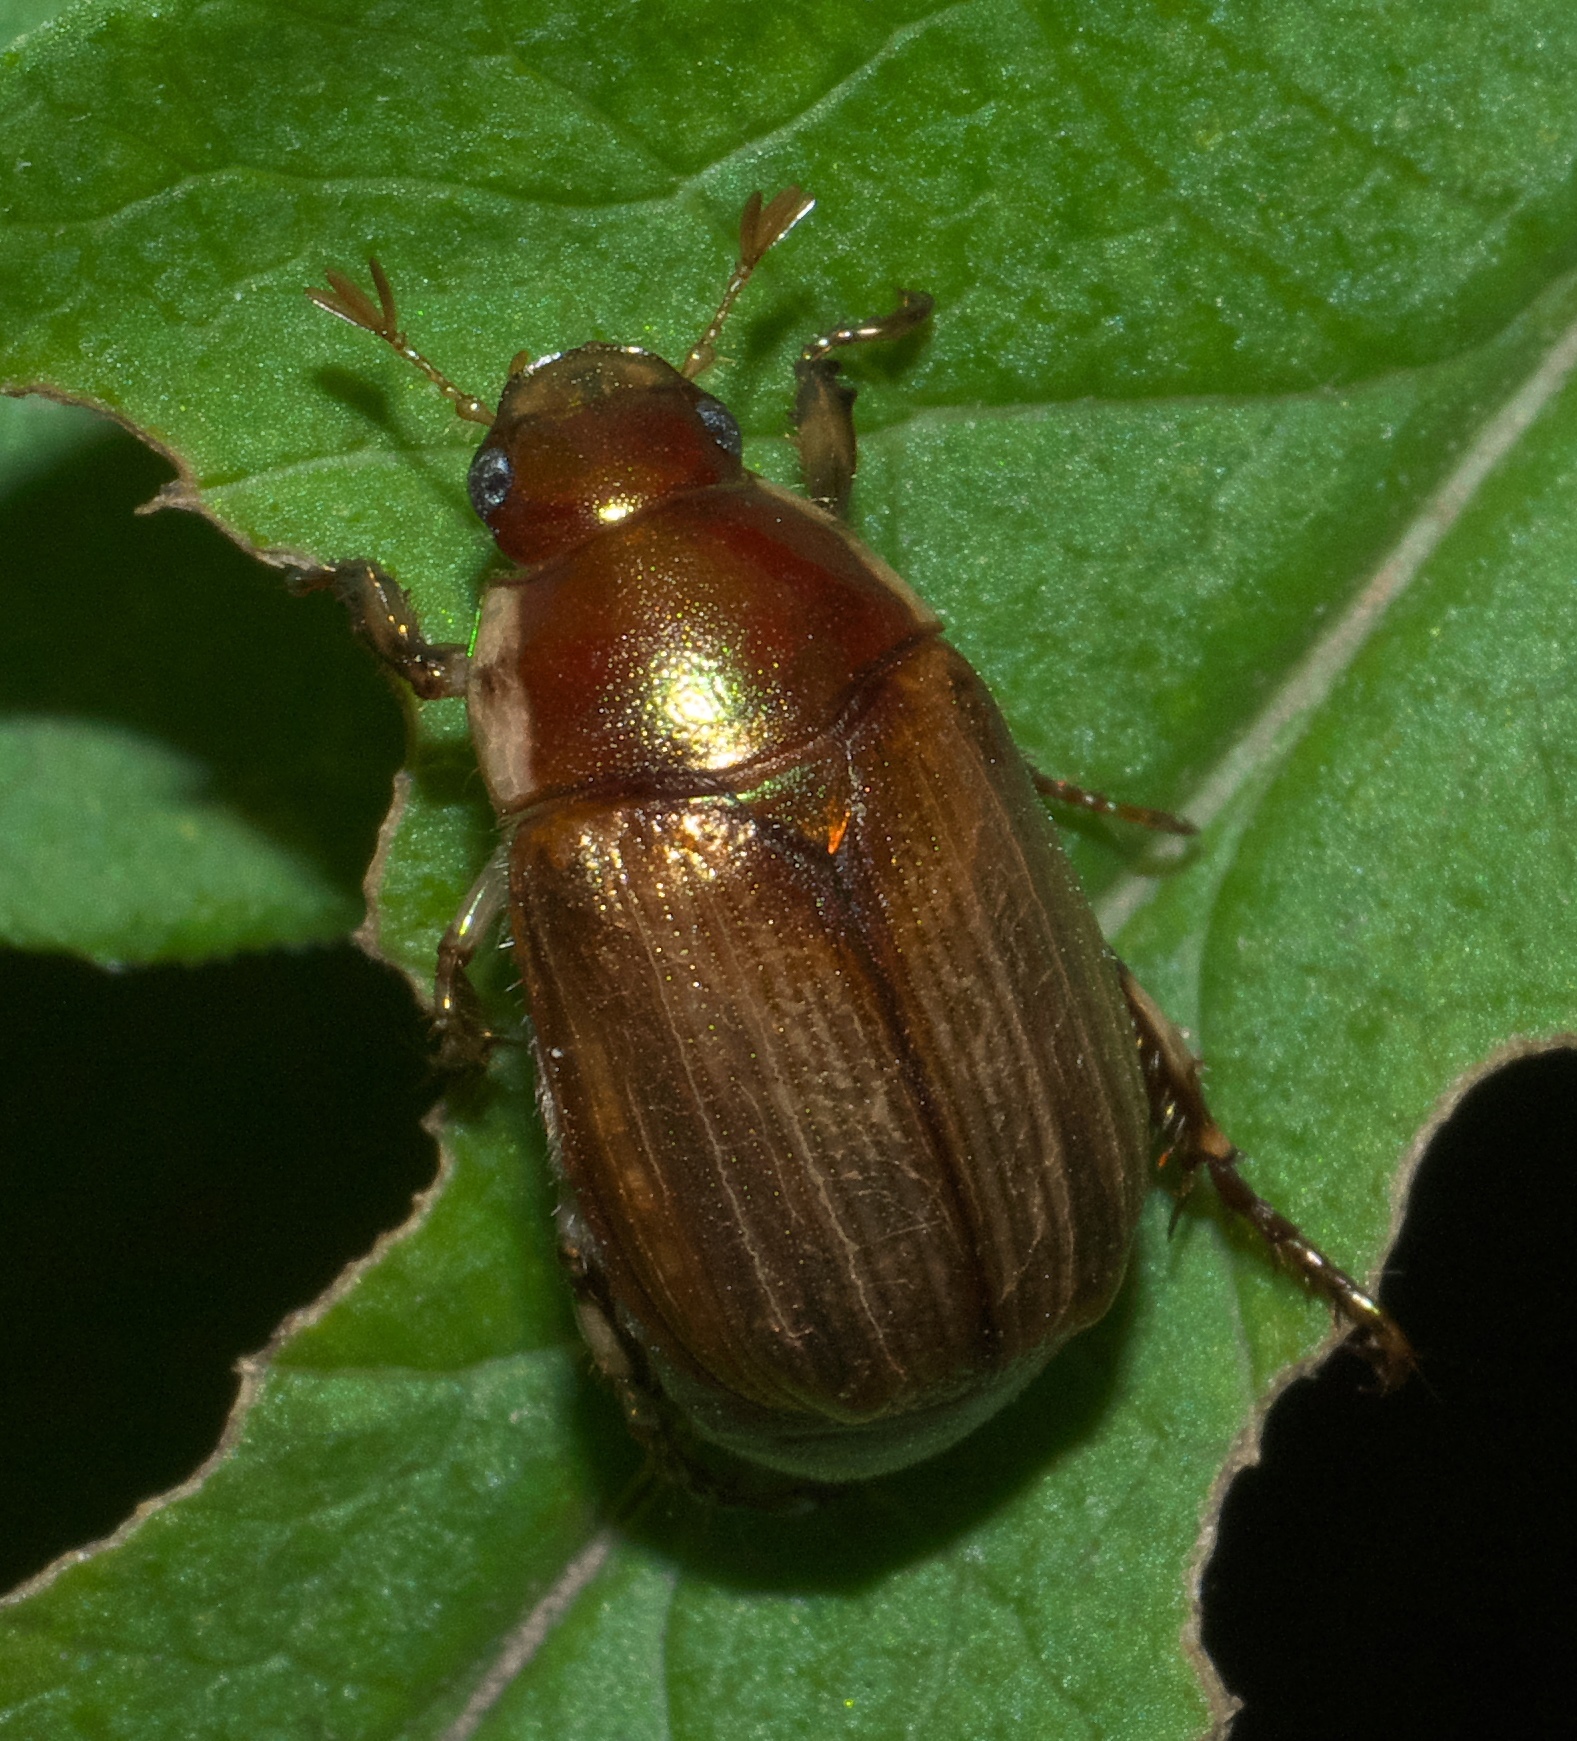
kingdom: Animalia
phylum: Arthropoda
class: Insecta
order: Coleoptera
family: Scarabaeidae
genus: Callistethus
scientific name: Callistethus marginatus
